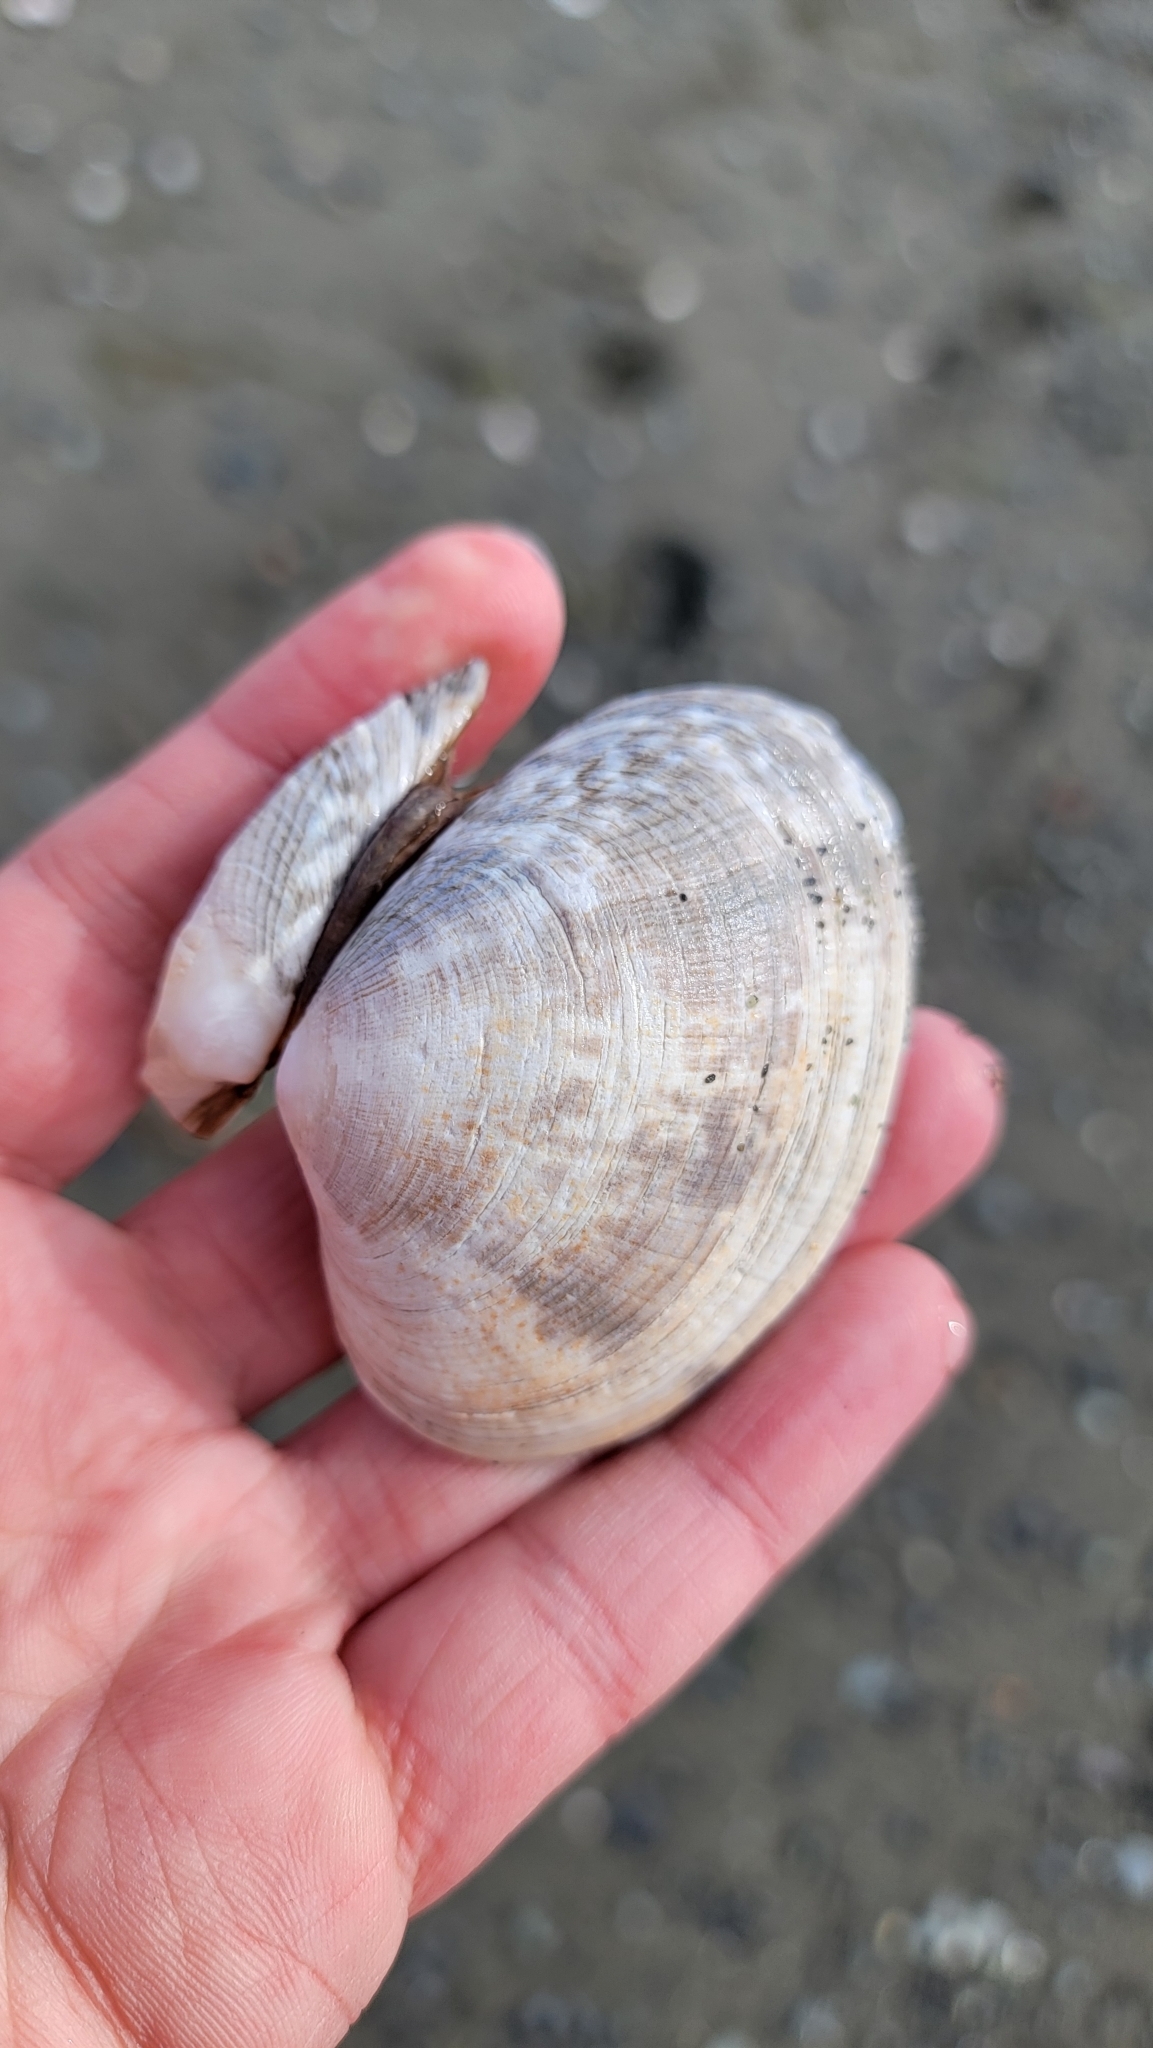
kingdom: Animalia
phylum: Mollusca
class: Bivalvia
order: Venerida
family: Veneridae
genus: Ruditapes
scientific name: Ruditapes philippinarum
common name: Manila clam
